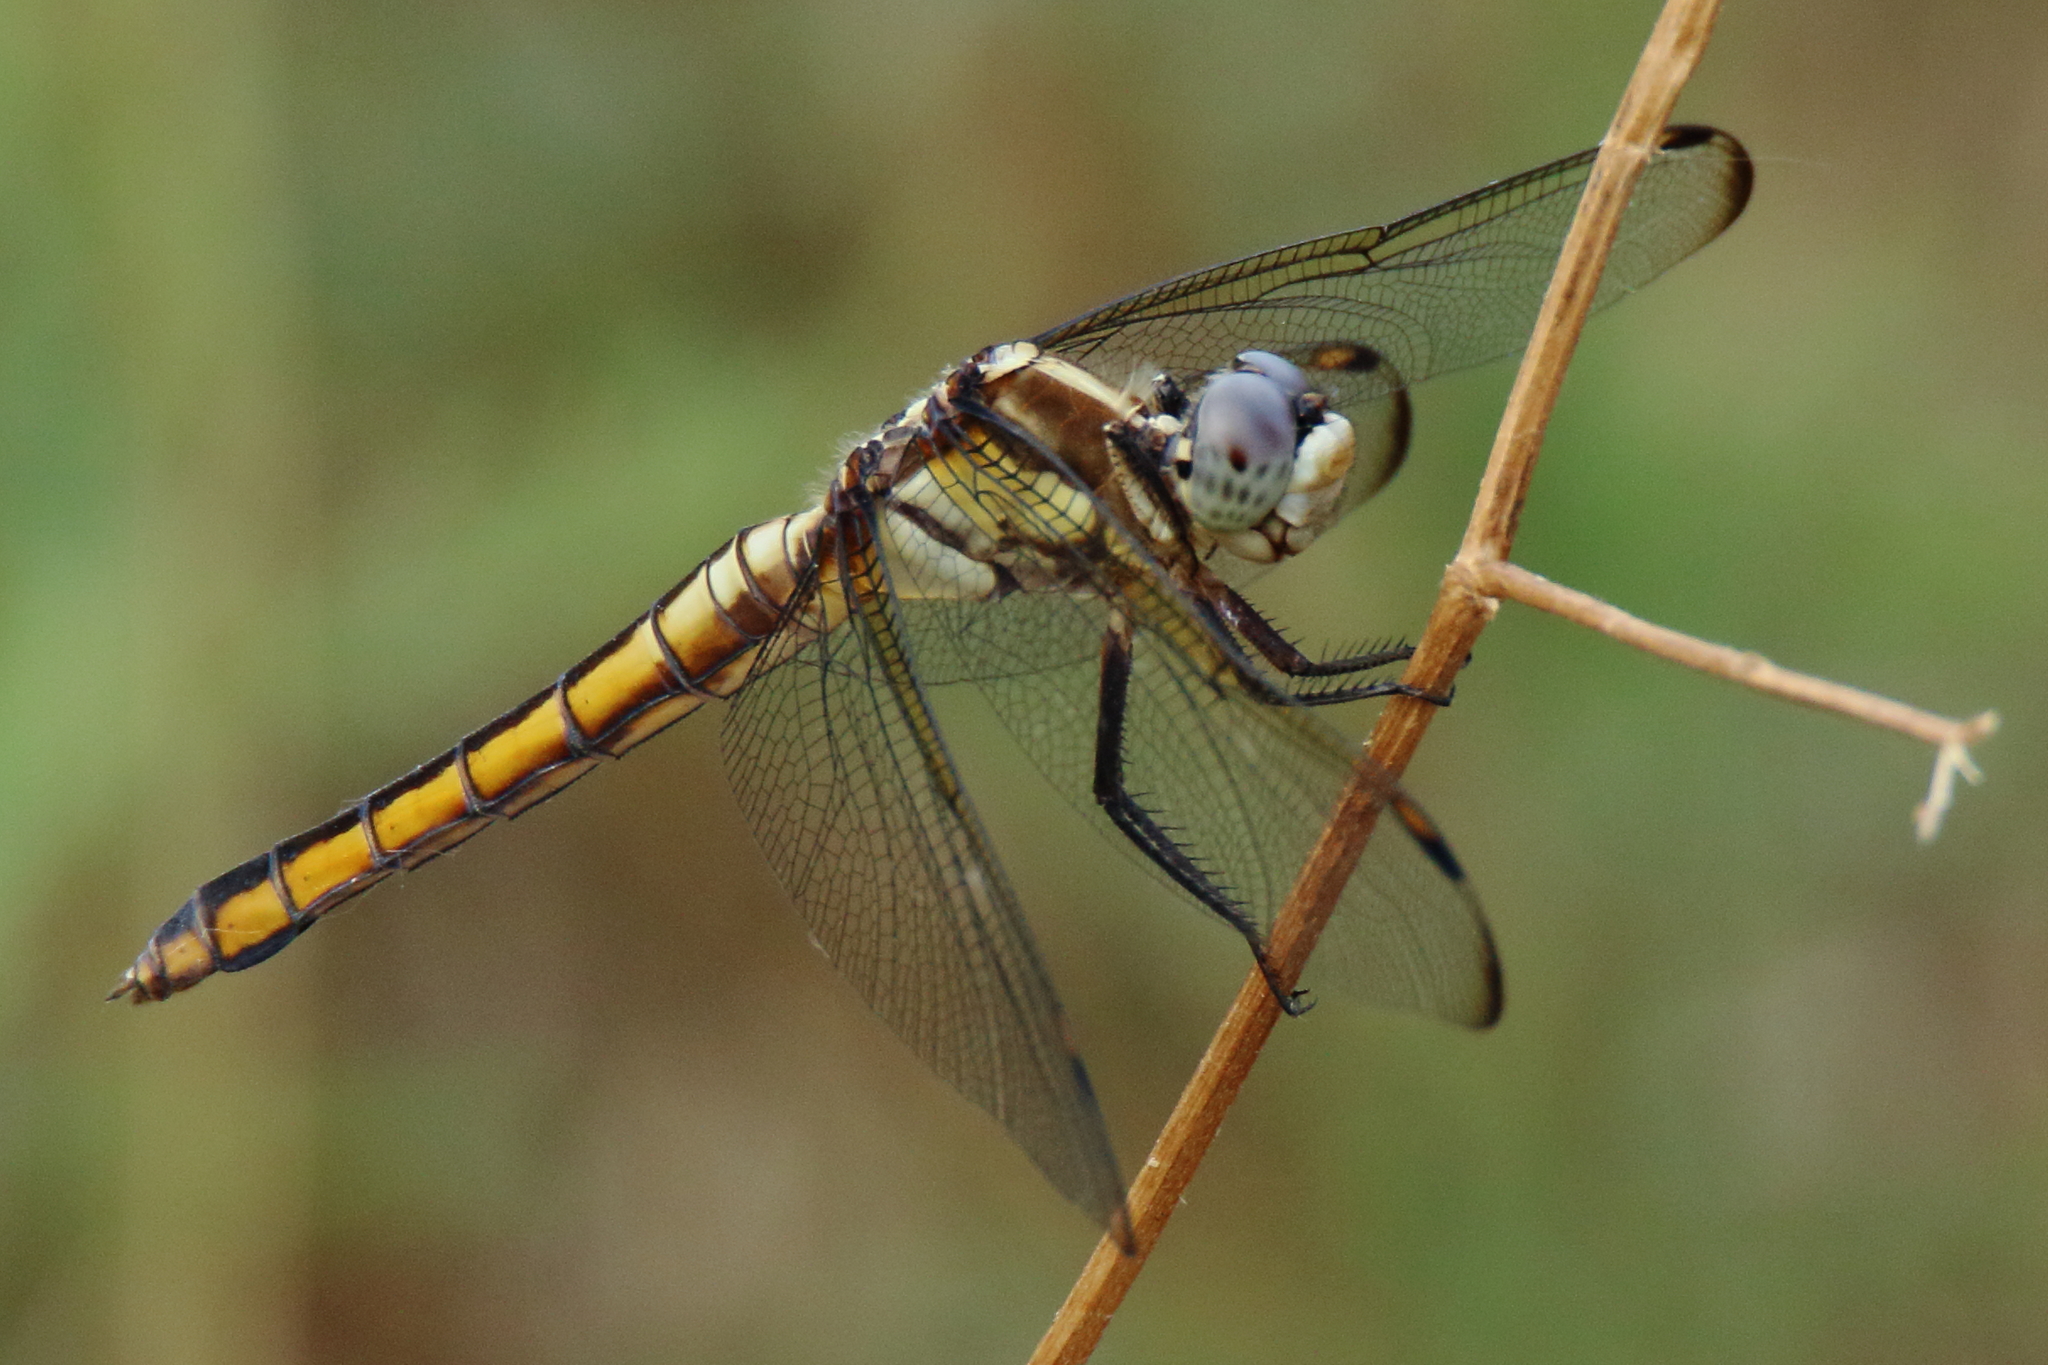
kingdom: Animalia
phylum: Arthropoda
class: Insecta
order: Odonata
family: Libellulidae
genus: Libellula
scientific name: Libellula comanche
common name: Comanche skimmer
